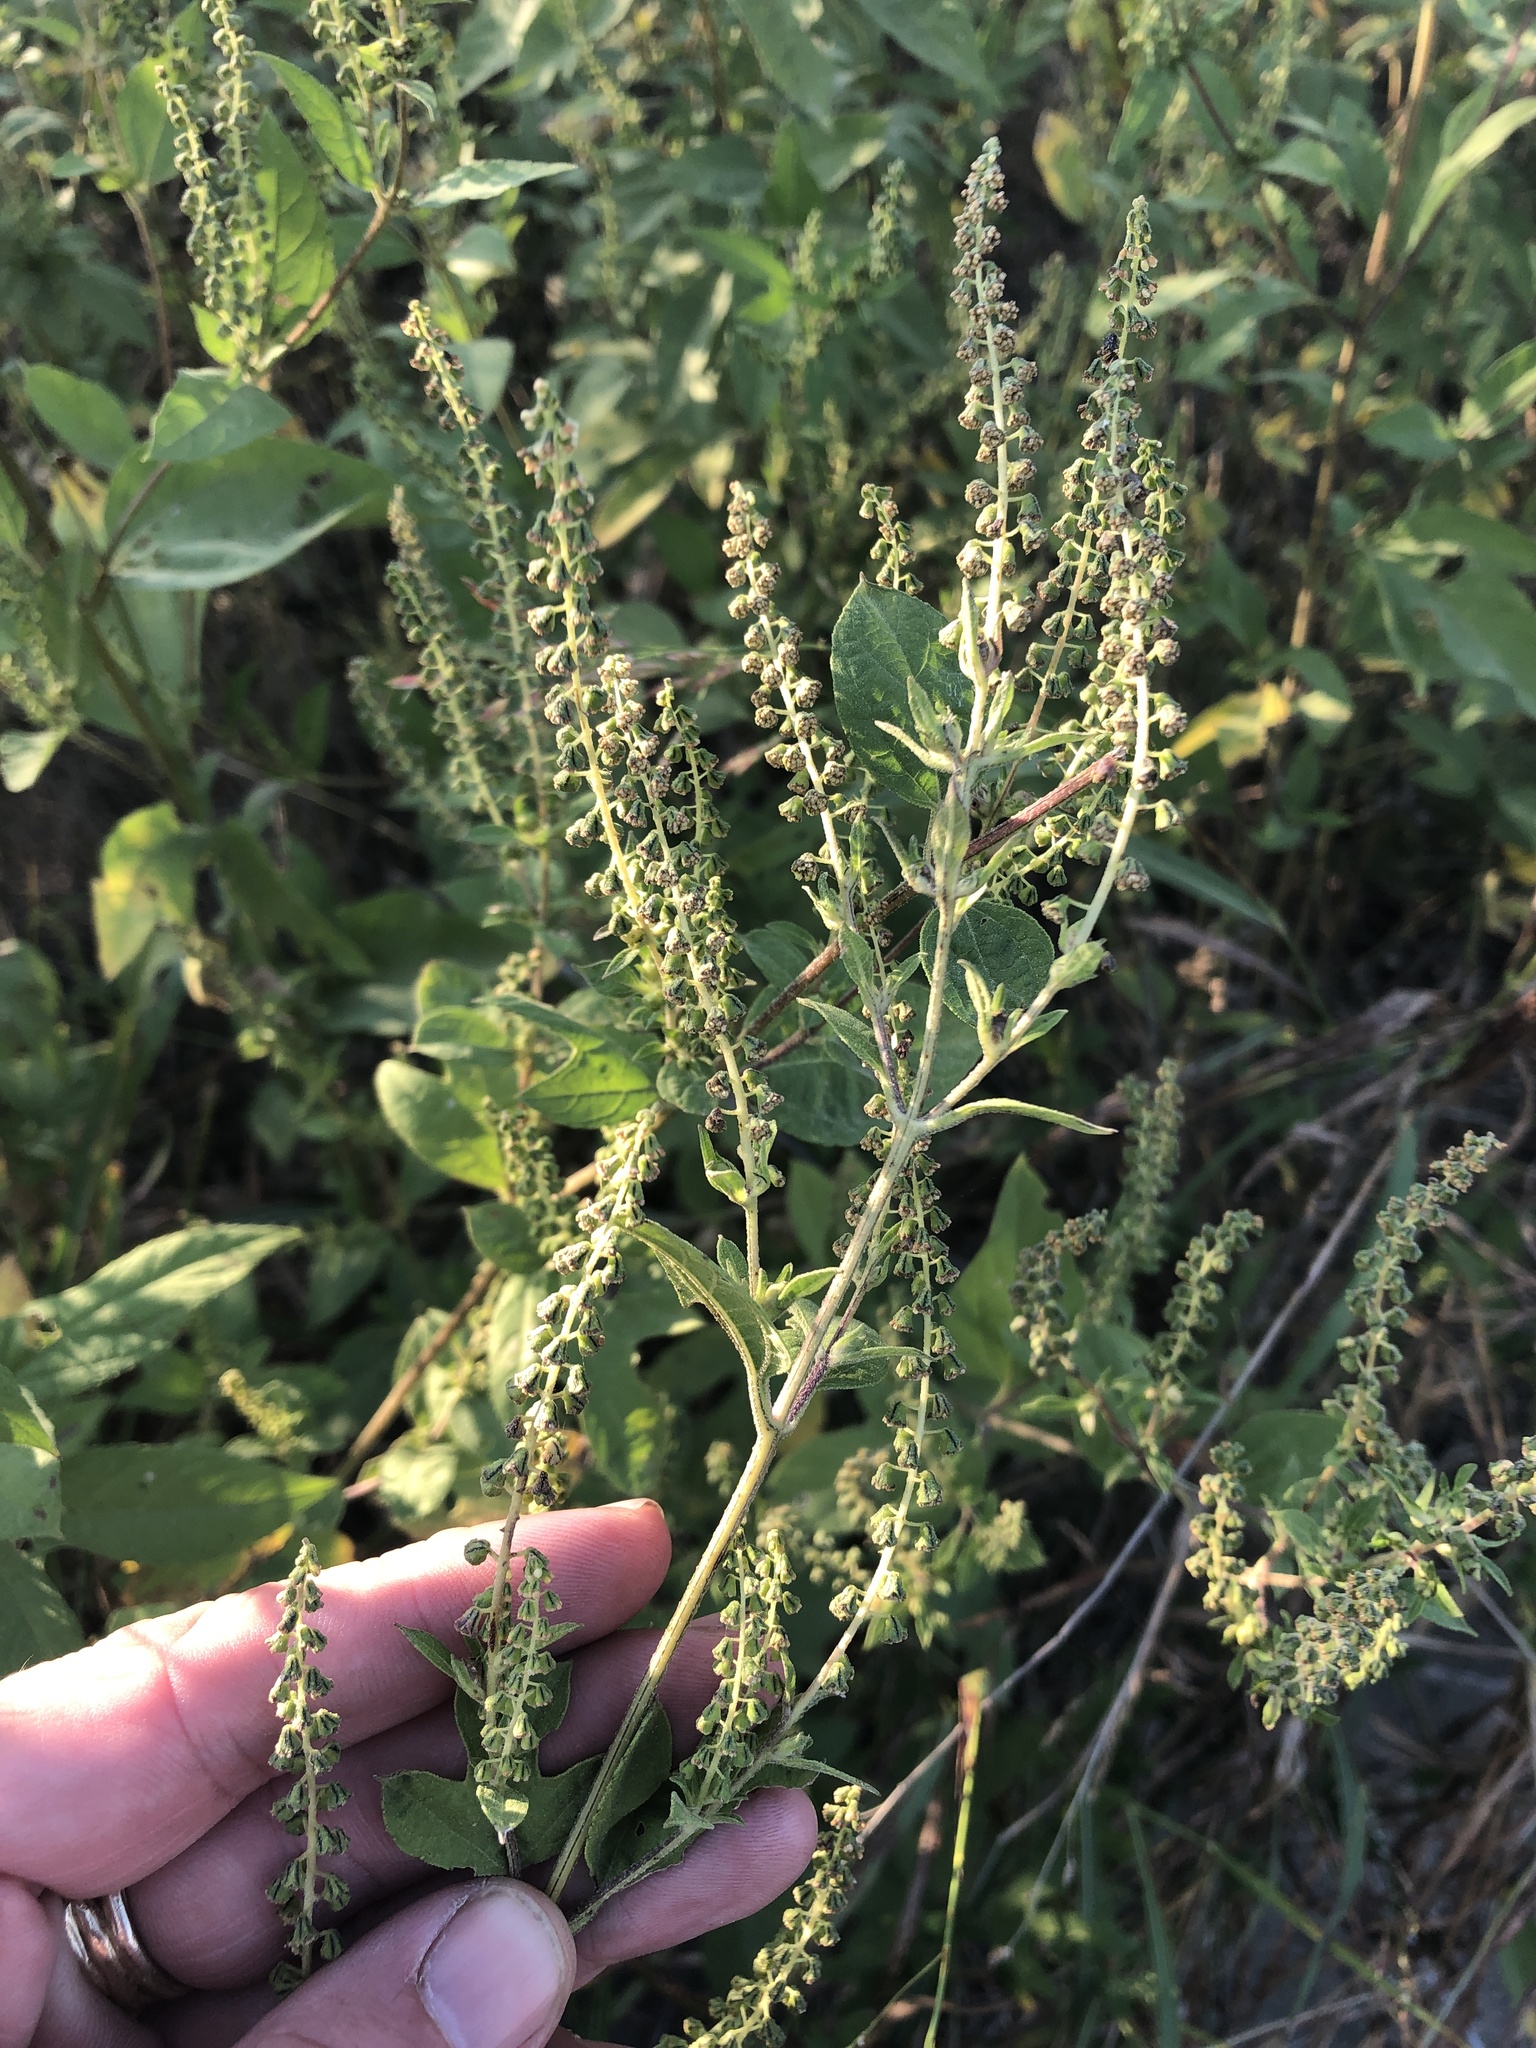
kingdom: Plantae
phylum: Tracheophyta
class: Magnoliopsida
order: Asterales
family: Asteraceae
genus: Ambrosia
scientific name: Ambrosia trifida
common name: Giant ragweed
